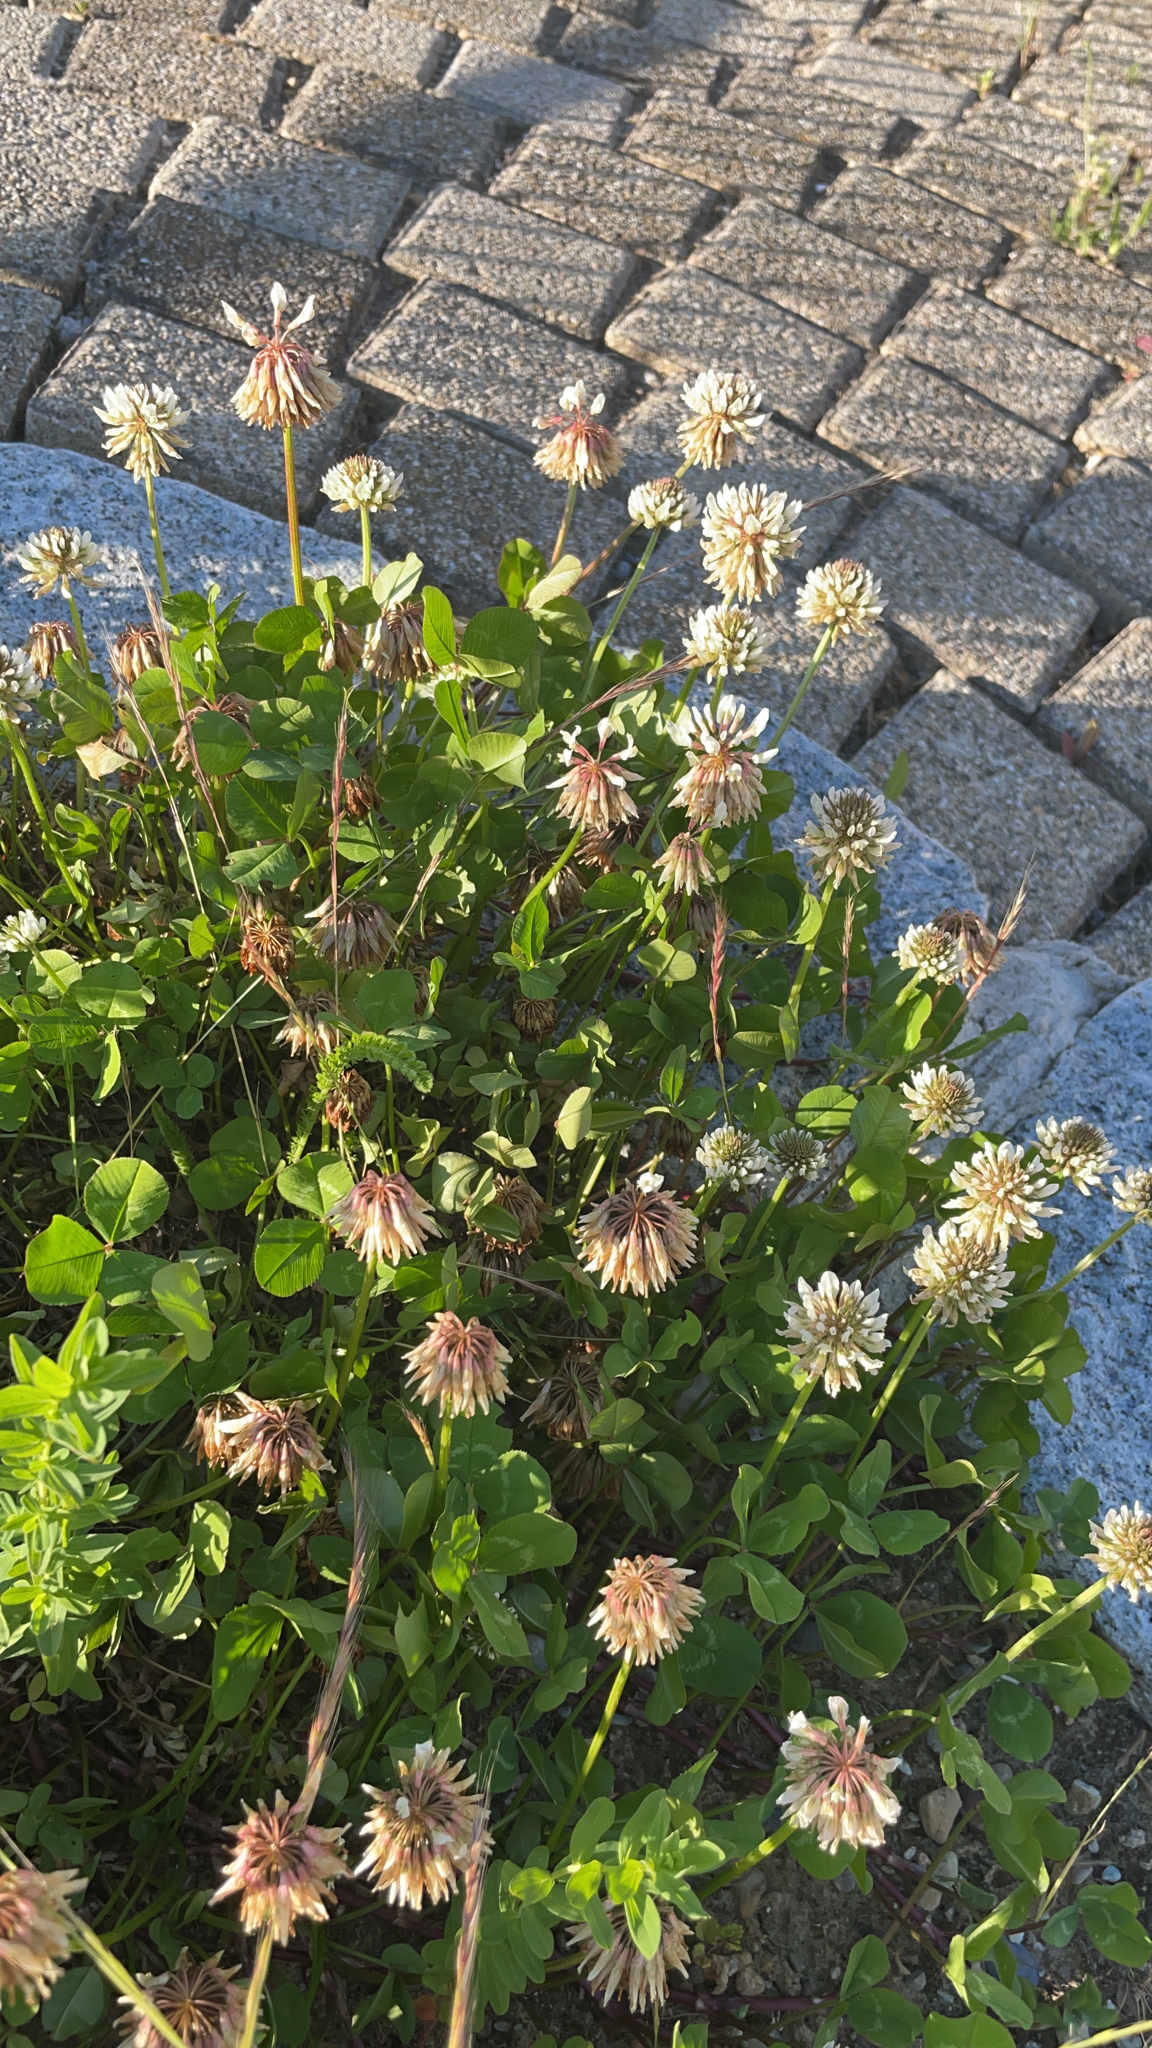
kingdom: Plantae
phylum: Tracheophyta
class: Magnoliopsida
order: Fabales
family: Fabaceae
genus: Trifolium
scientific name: Trifolium repens
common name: White clover
